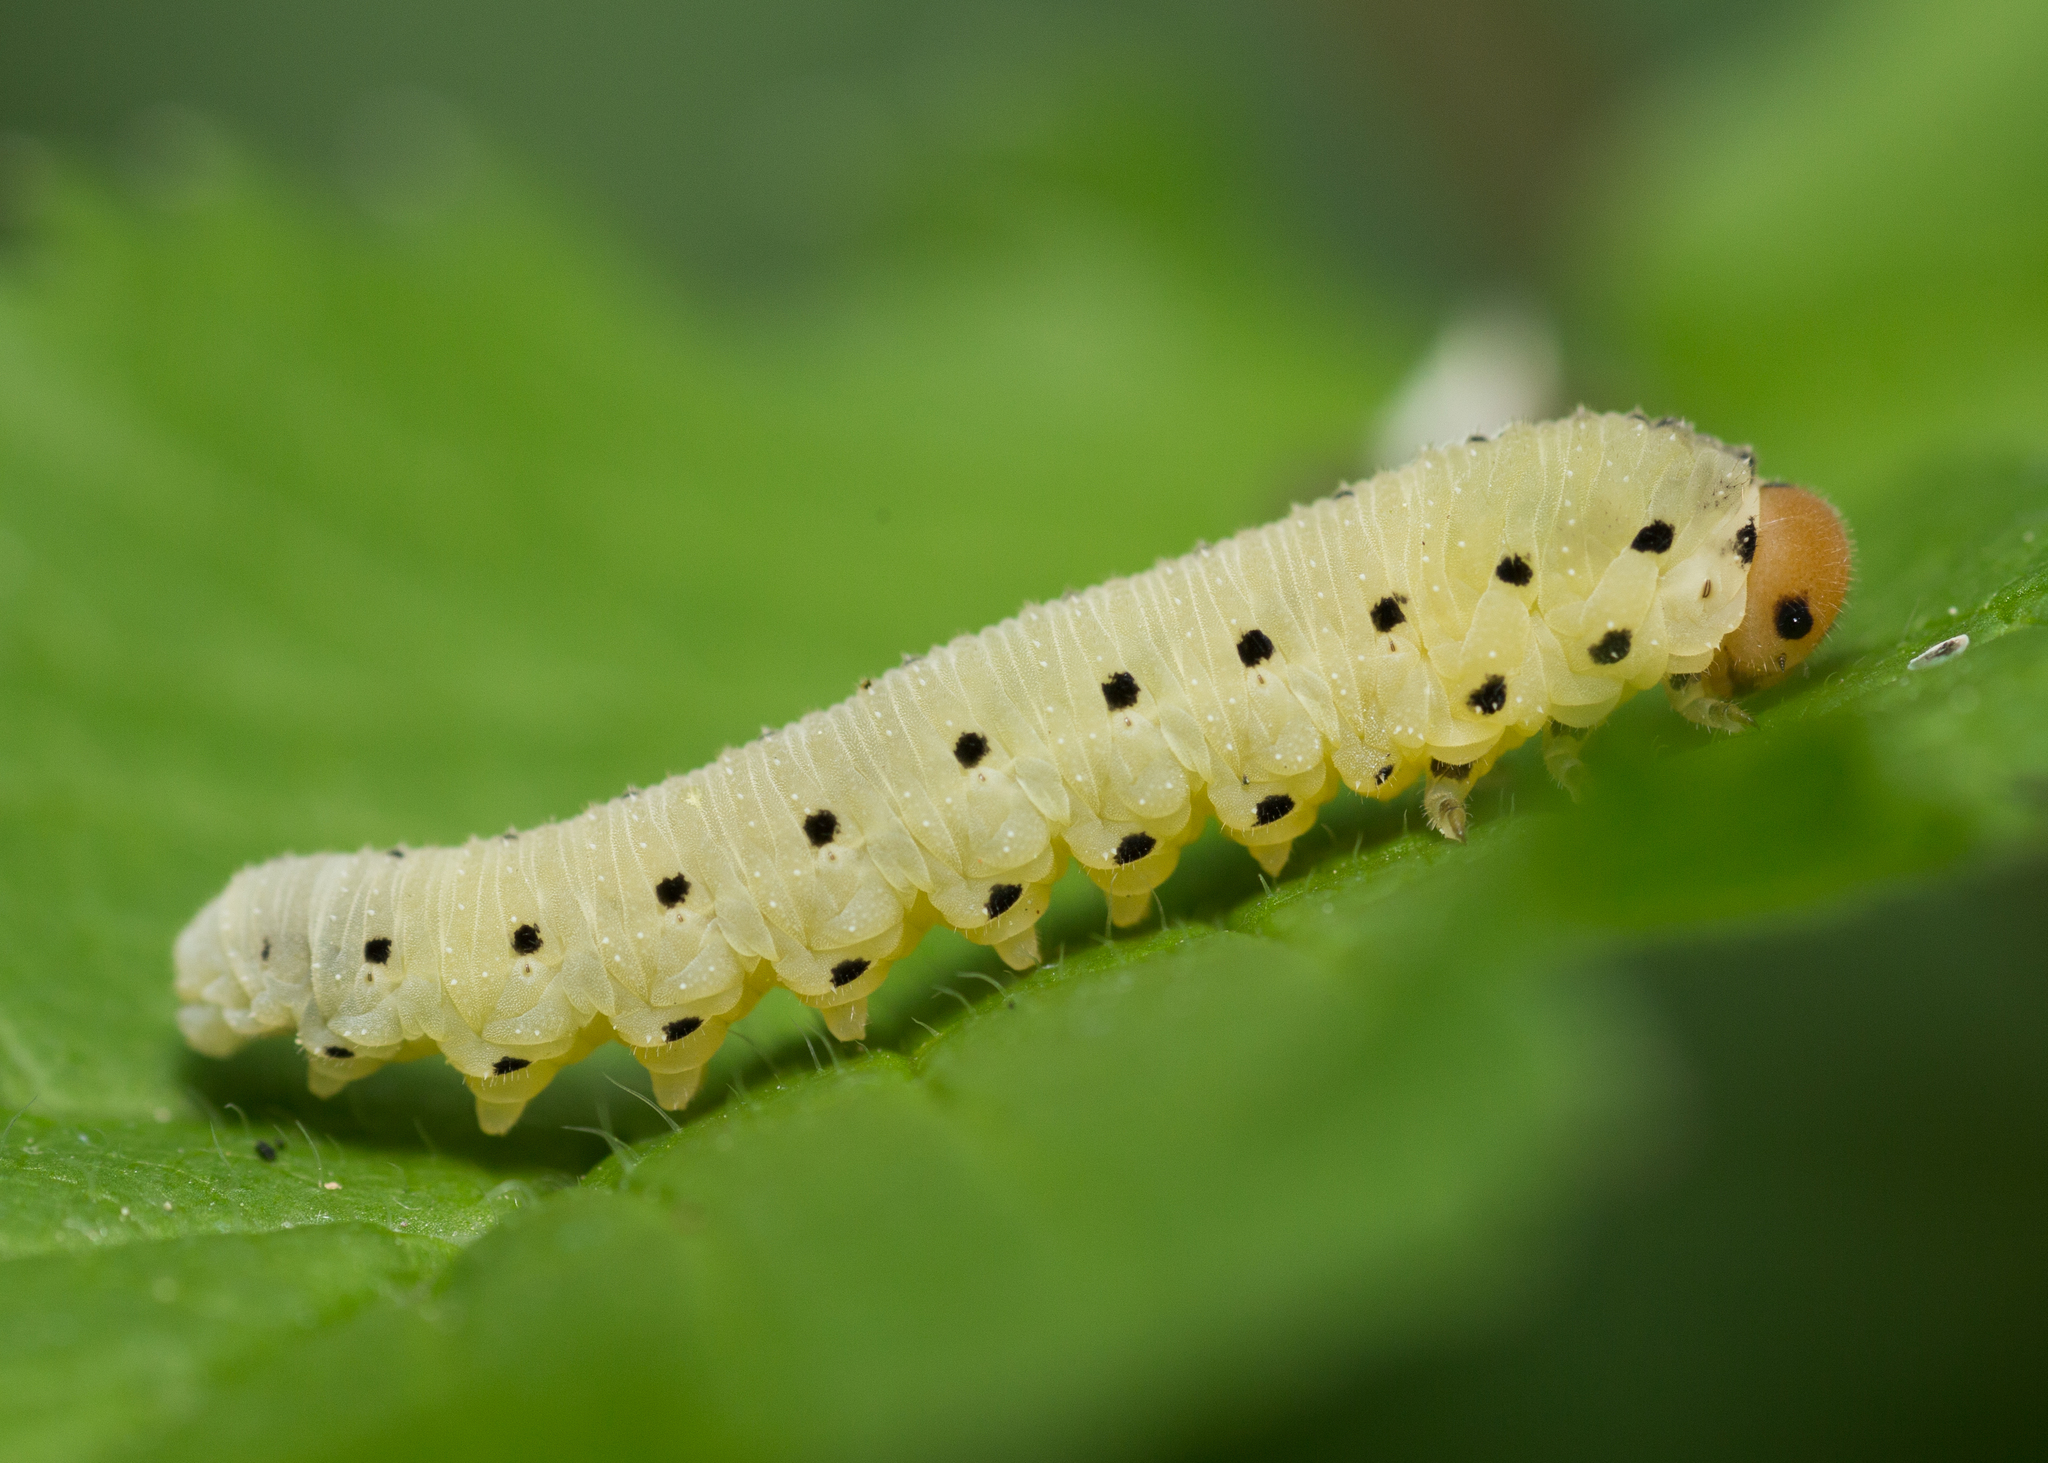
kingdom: Animalia
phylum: Arthropoda
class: Insecta
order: Hymenoptera
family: Tenthredinidae
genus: Sciapteryx
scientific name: Sciapteryx costalis
